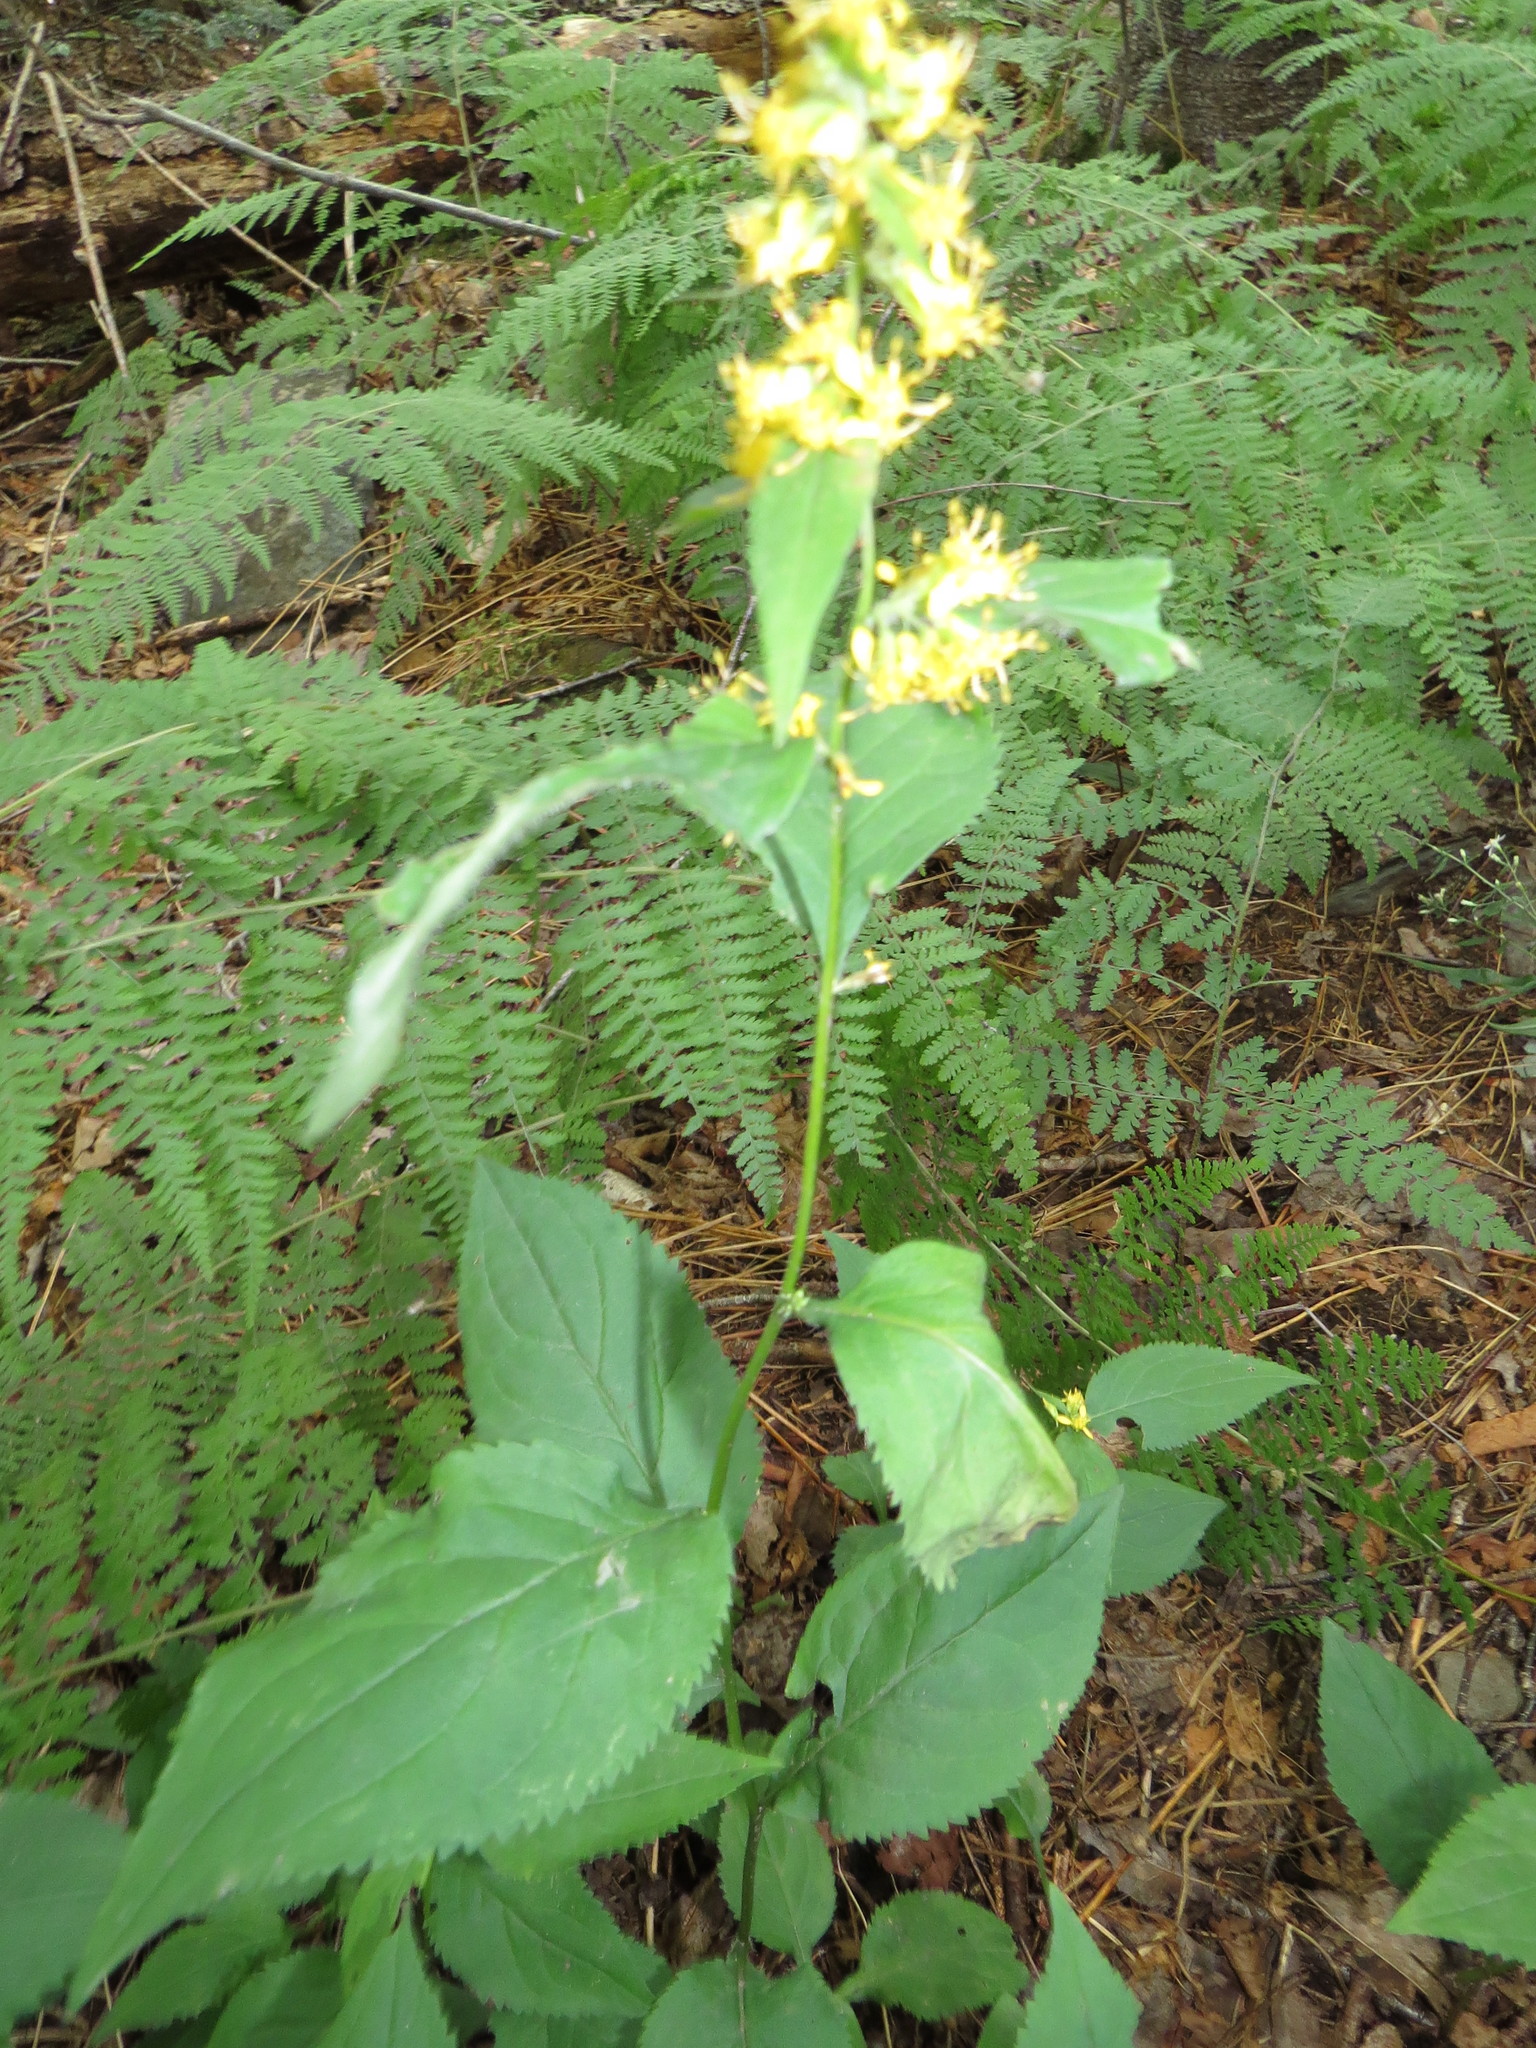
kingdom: Plantae
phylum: Tracheophyta
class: Magnoliopsida
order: Asterales
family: Asteraceae
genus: Solidago
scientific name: Solidago flexicaulis
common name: Zig-zag goldenrod
